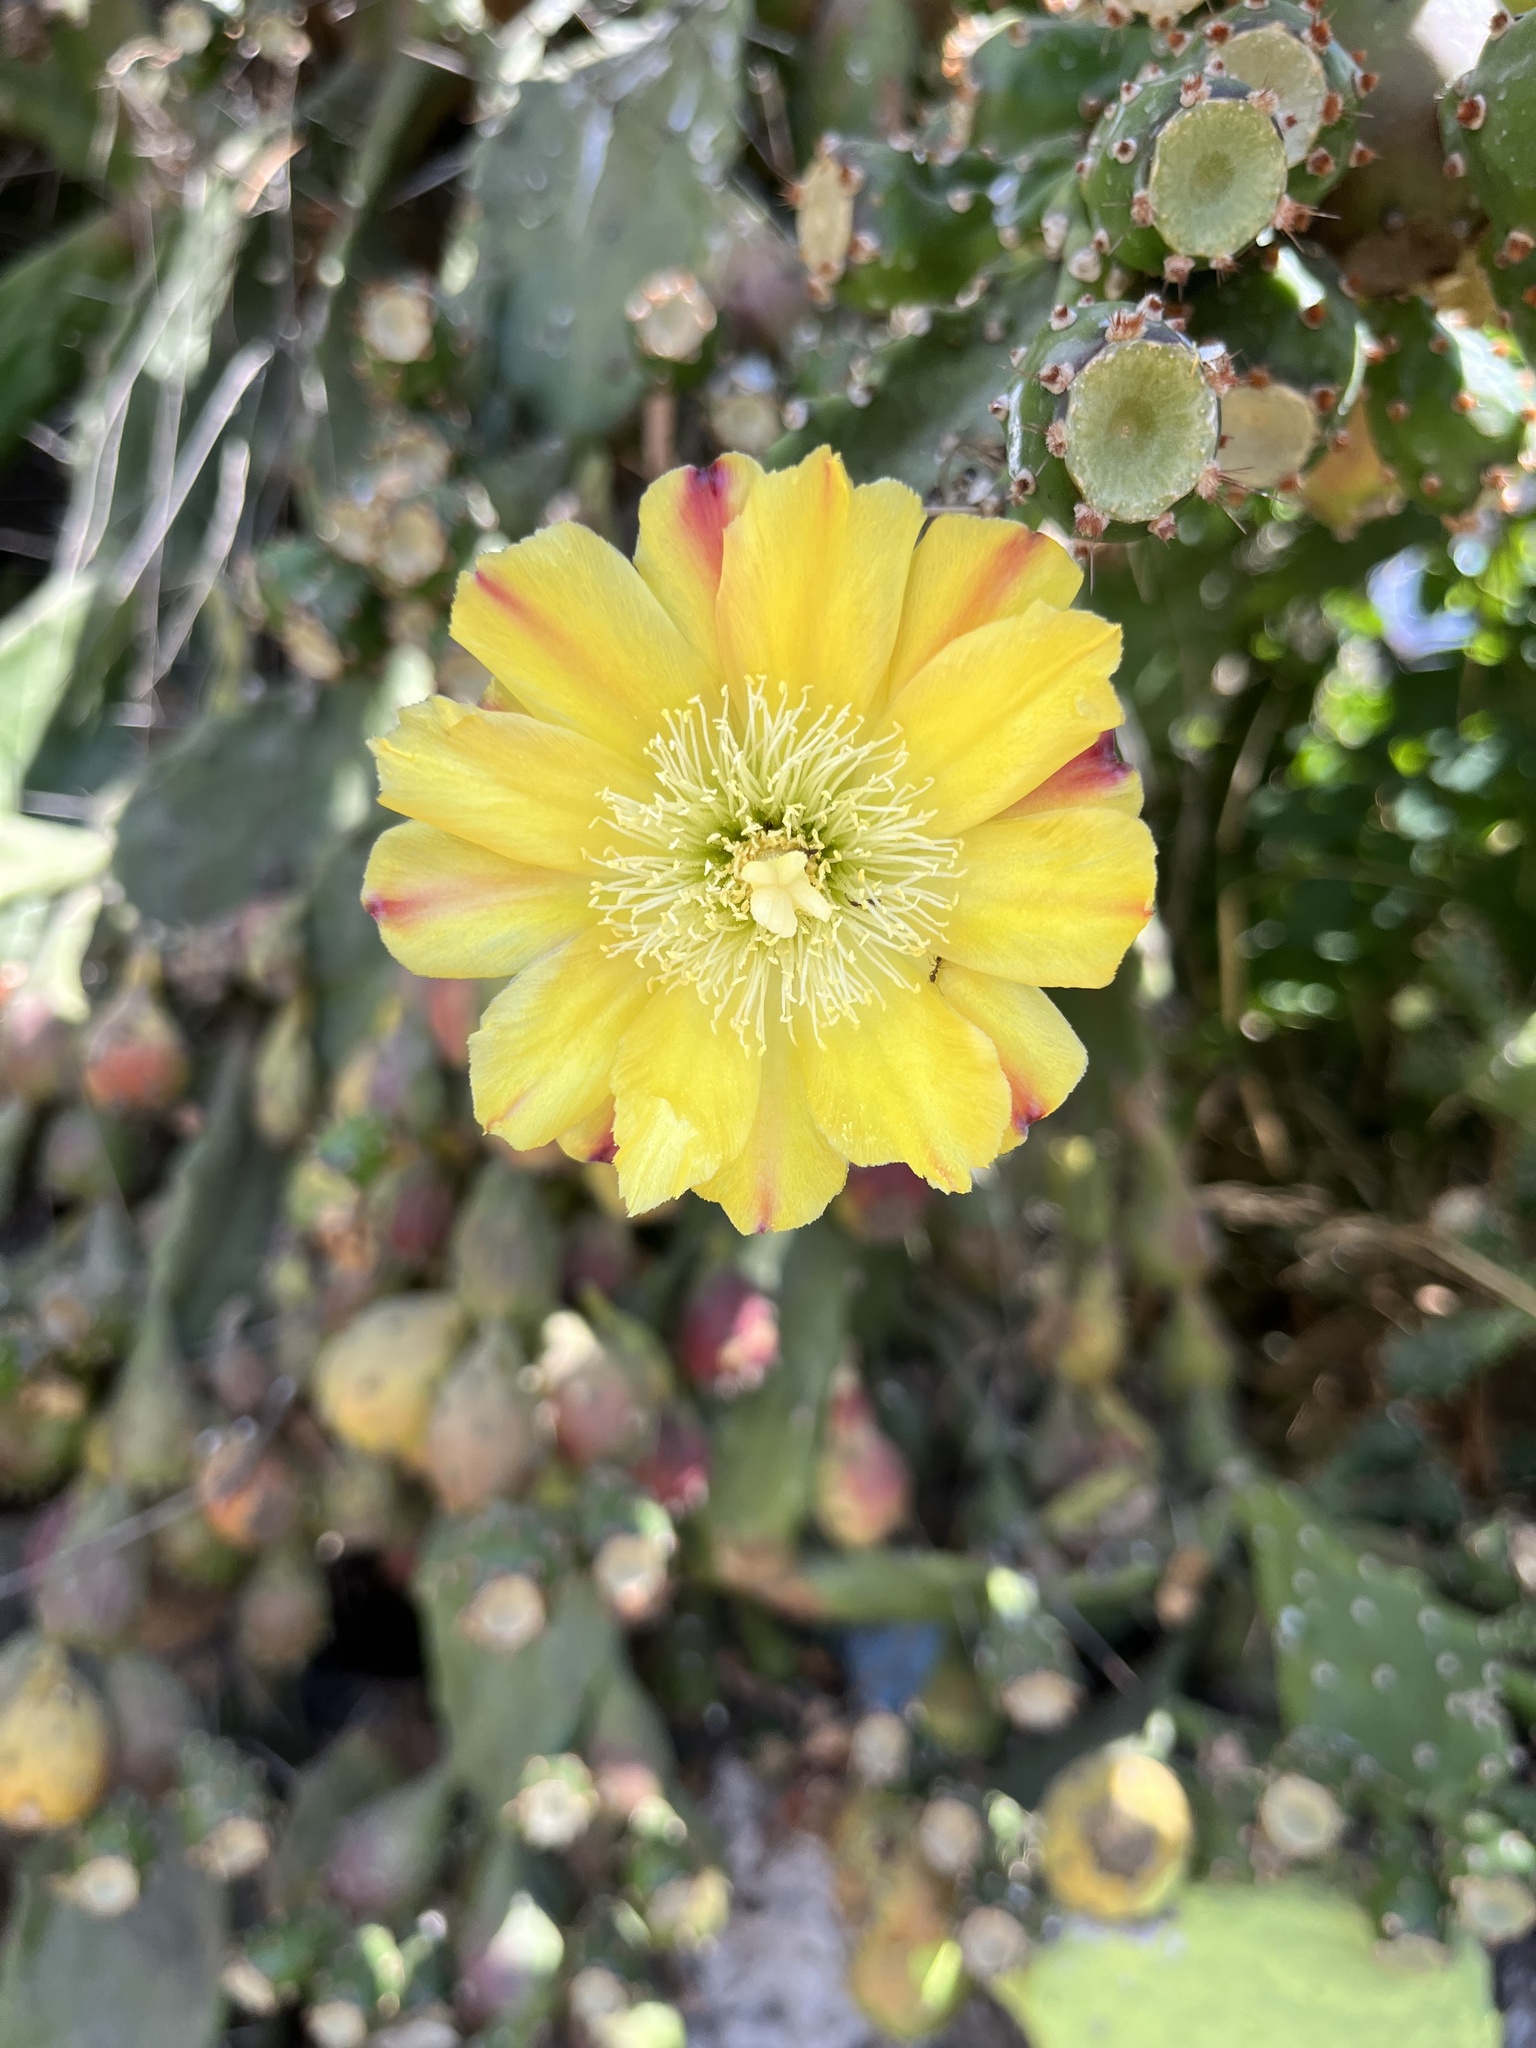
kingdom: Plantae
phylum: Tracheophyta
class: Magnoliopsida
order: Caryophyllales
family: Cactaceae
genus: Opuntia
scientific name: Opuntia monacantha
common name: Common pricklypear
